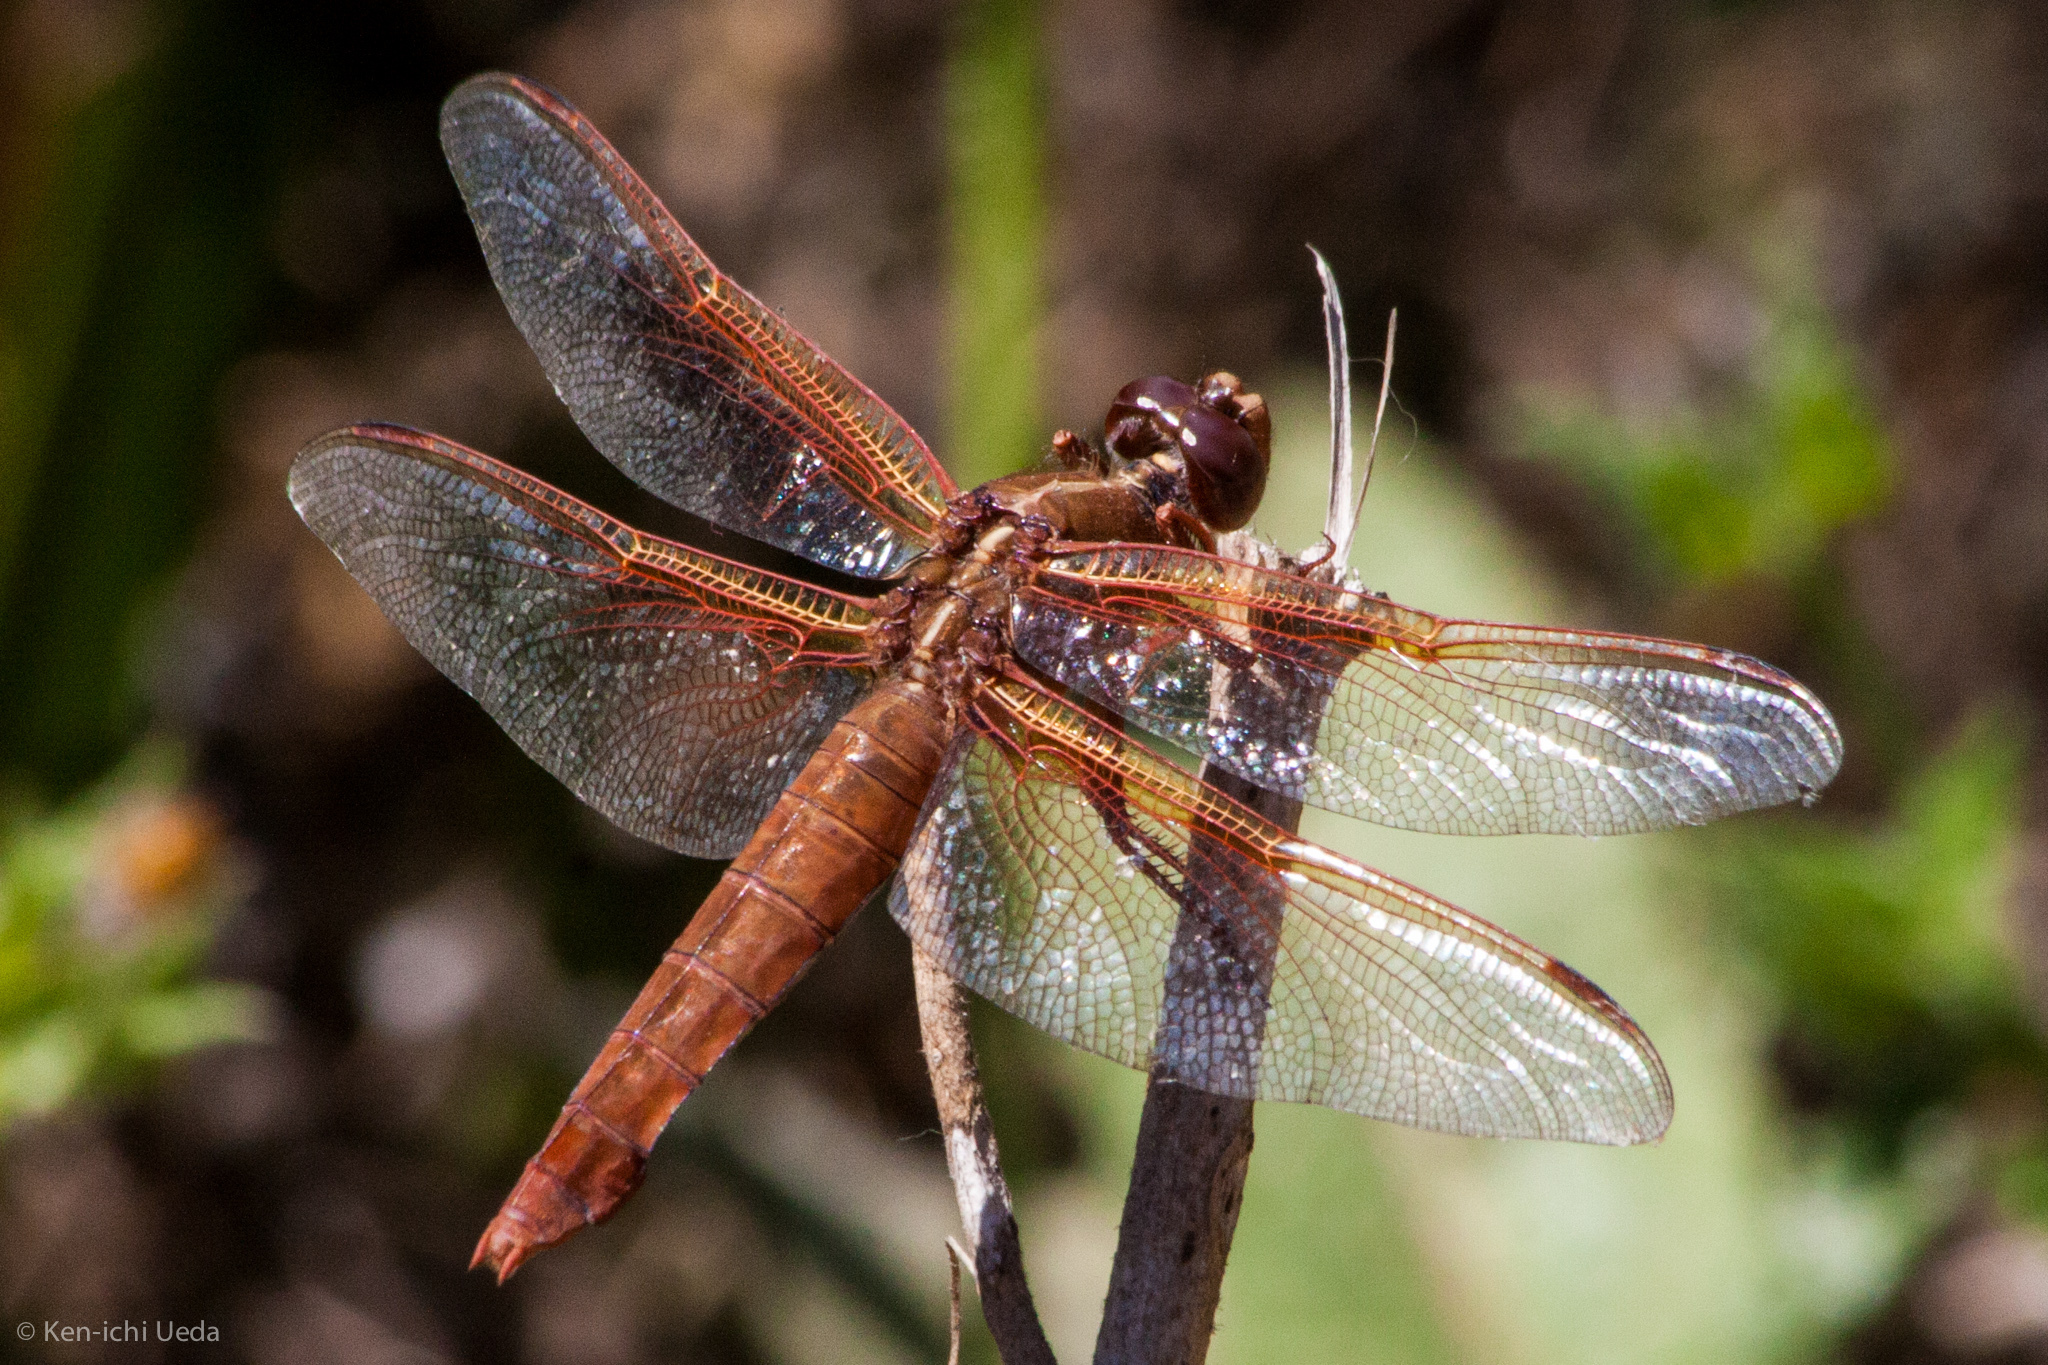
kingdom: Animalia
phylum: Arthropoda
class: Insecta
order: Odonata
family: Libellulidae
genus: Libellula
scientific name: Libellula saturata
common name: Flame skimmer
